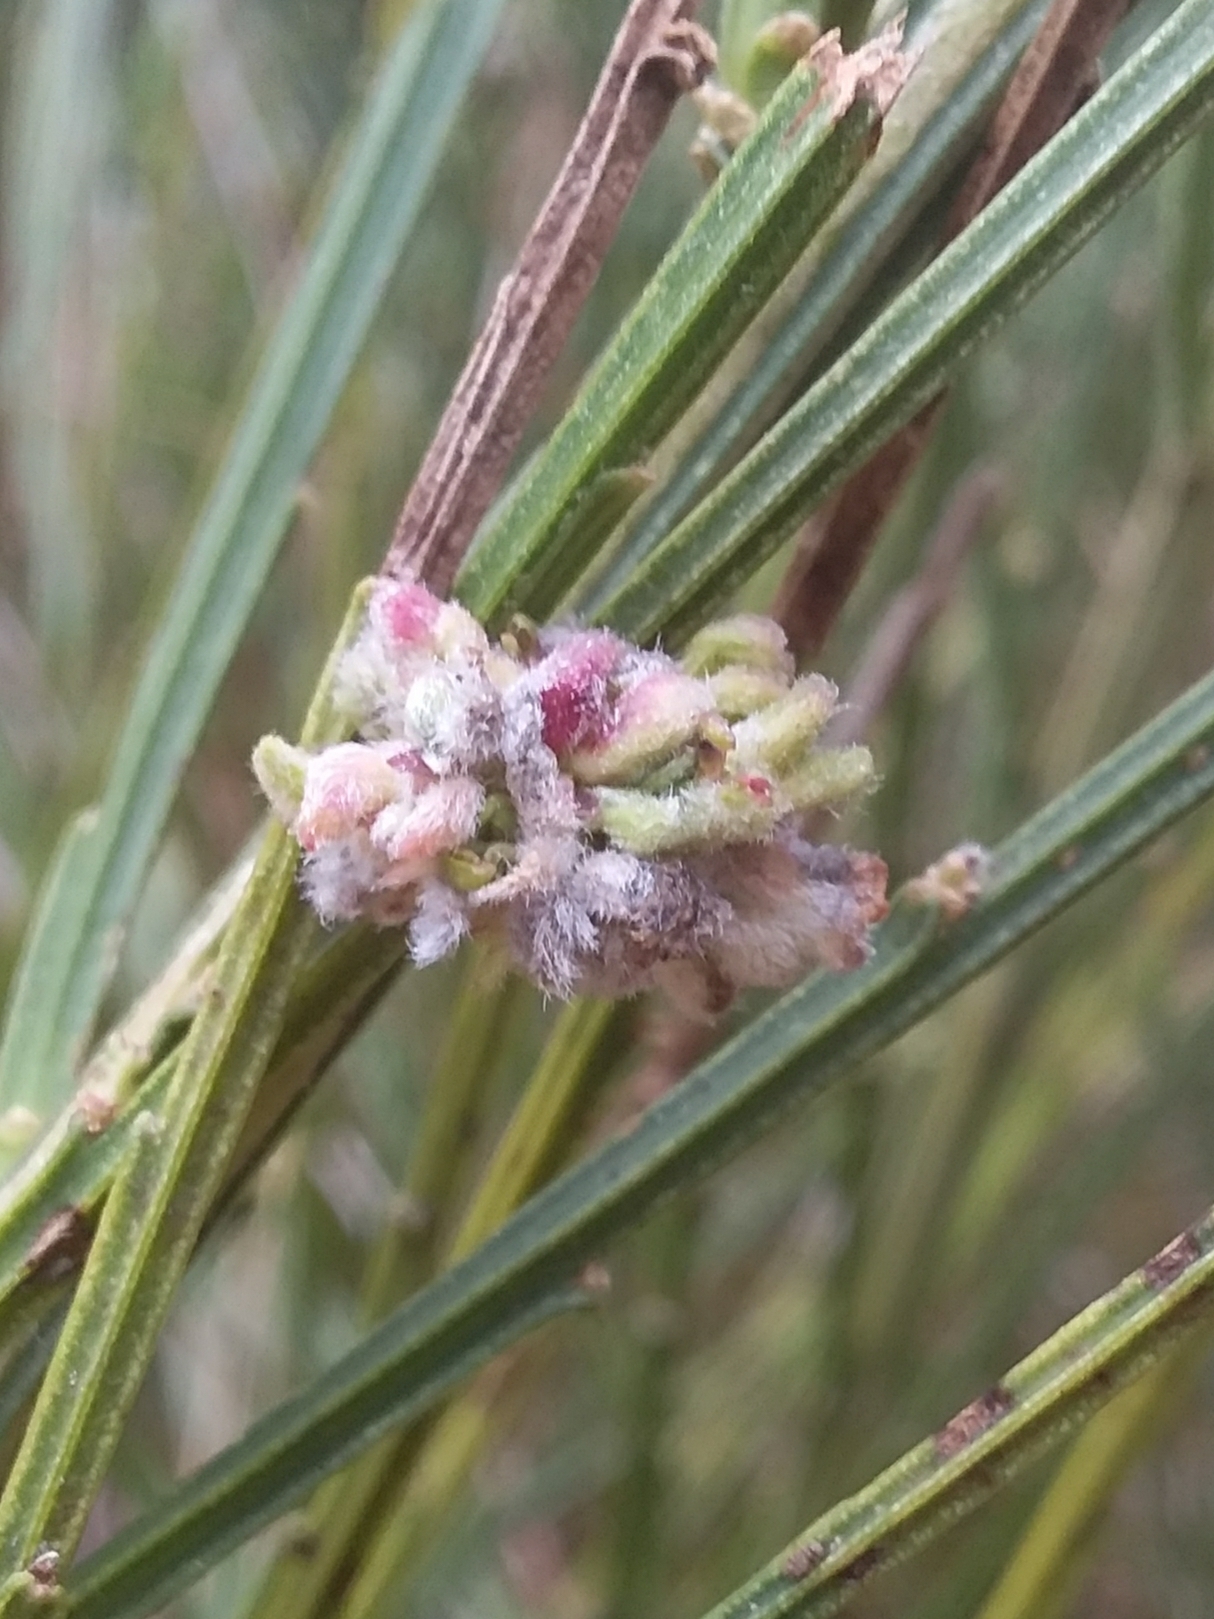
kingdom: Animalia
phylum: Arthropoda
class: Arachnida
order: Trombidiformes
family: Eriophyidae
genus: Aceria
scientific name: Aceria genistae
